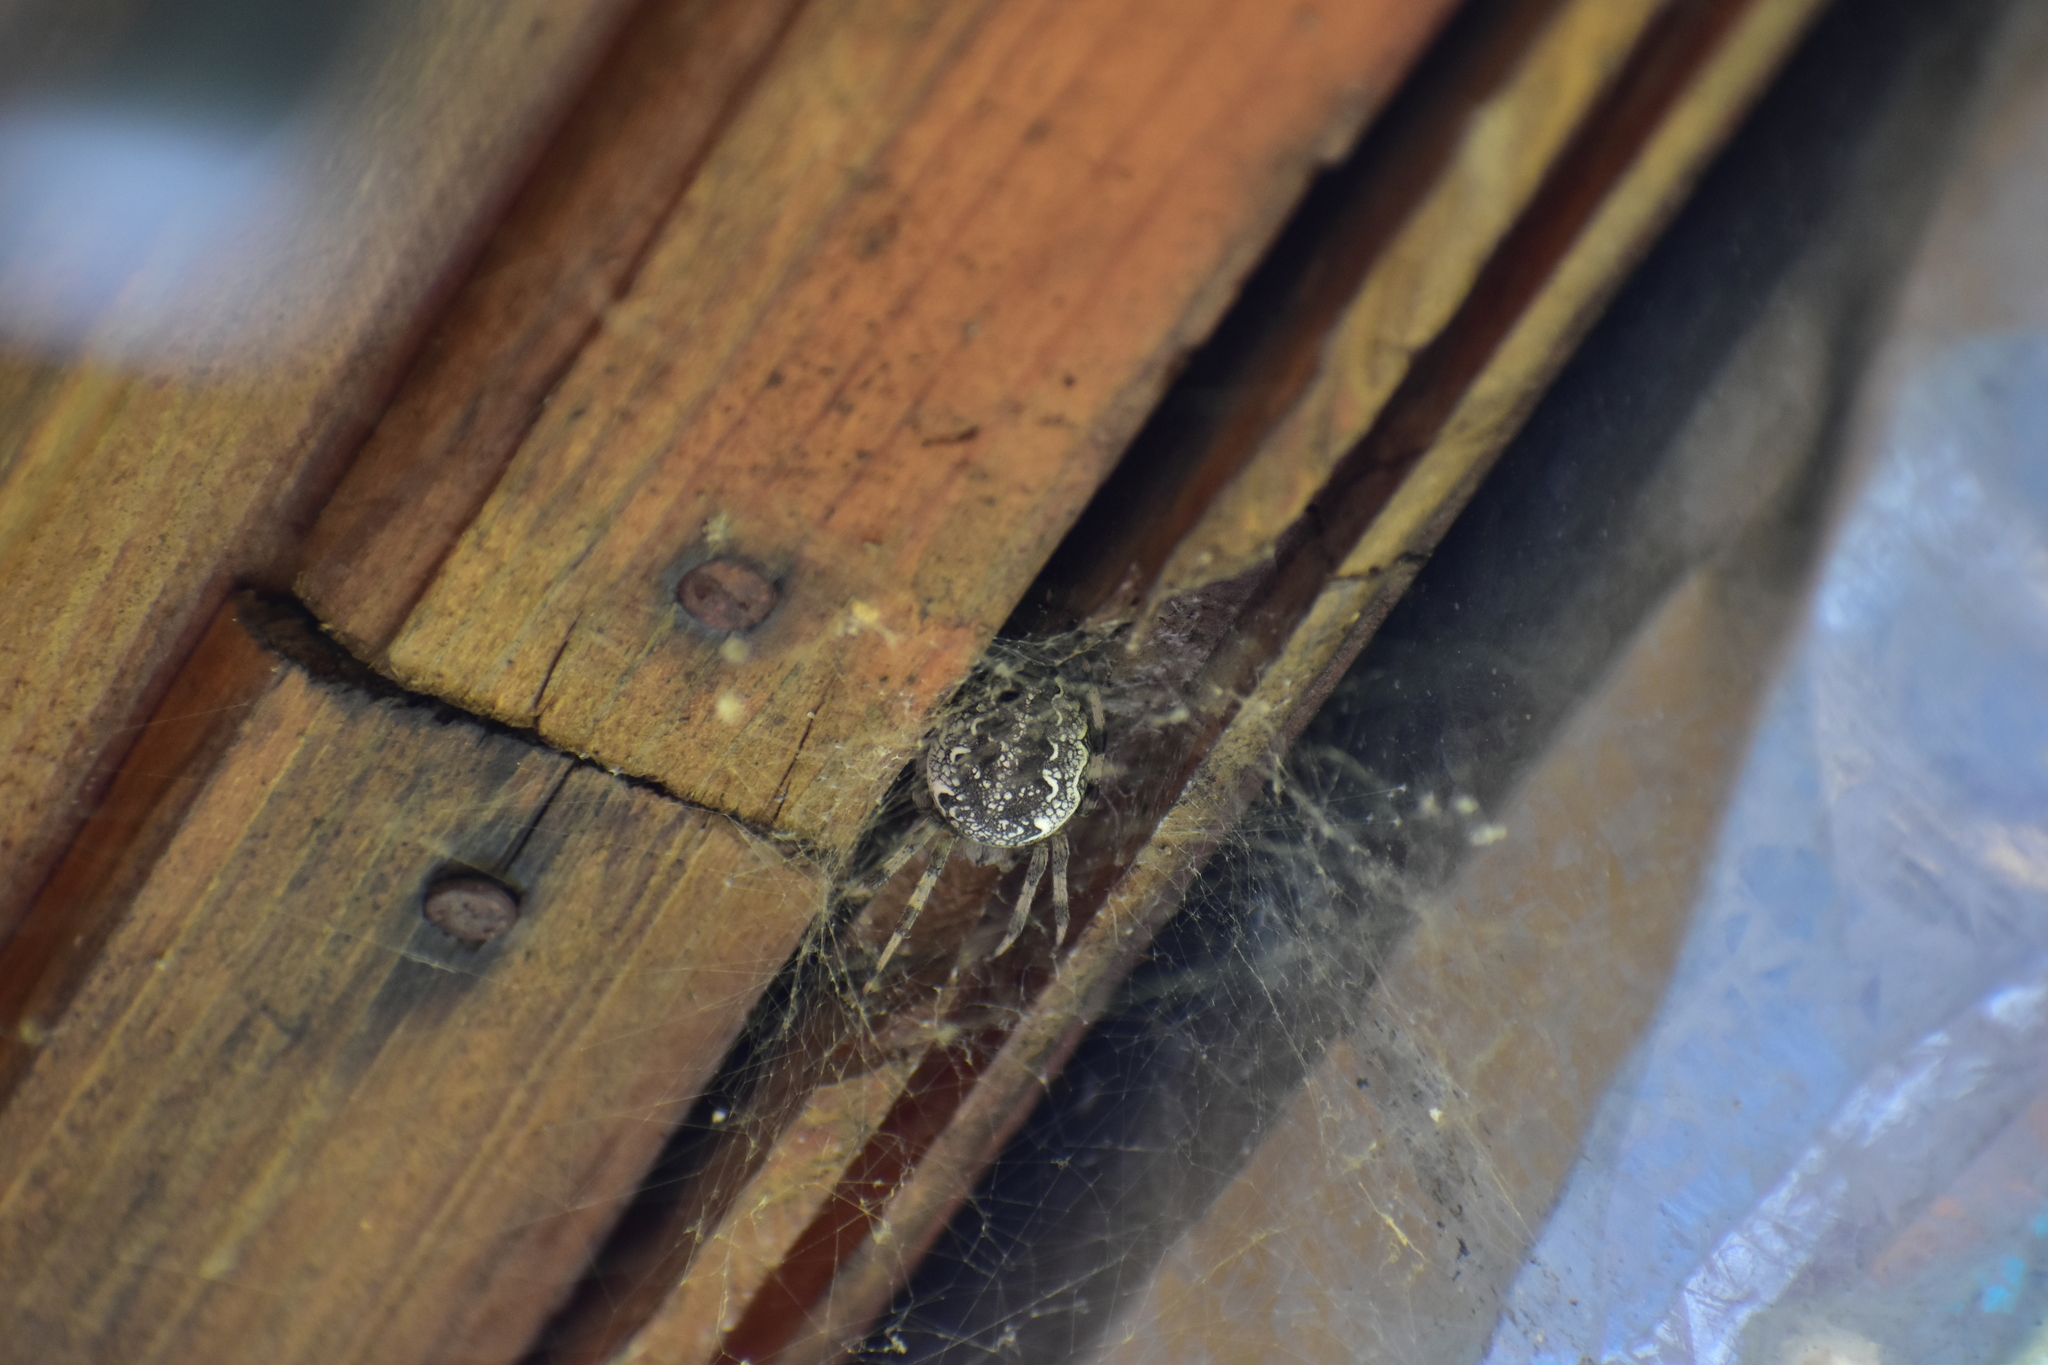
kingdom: Animalia
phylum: Arthropoda
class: Arachnida
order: Araneae
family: Araneidae
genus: Araneus
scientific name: Araneus marmoreus
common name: Marbled orbweaver
